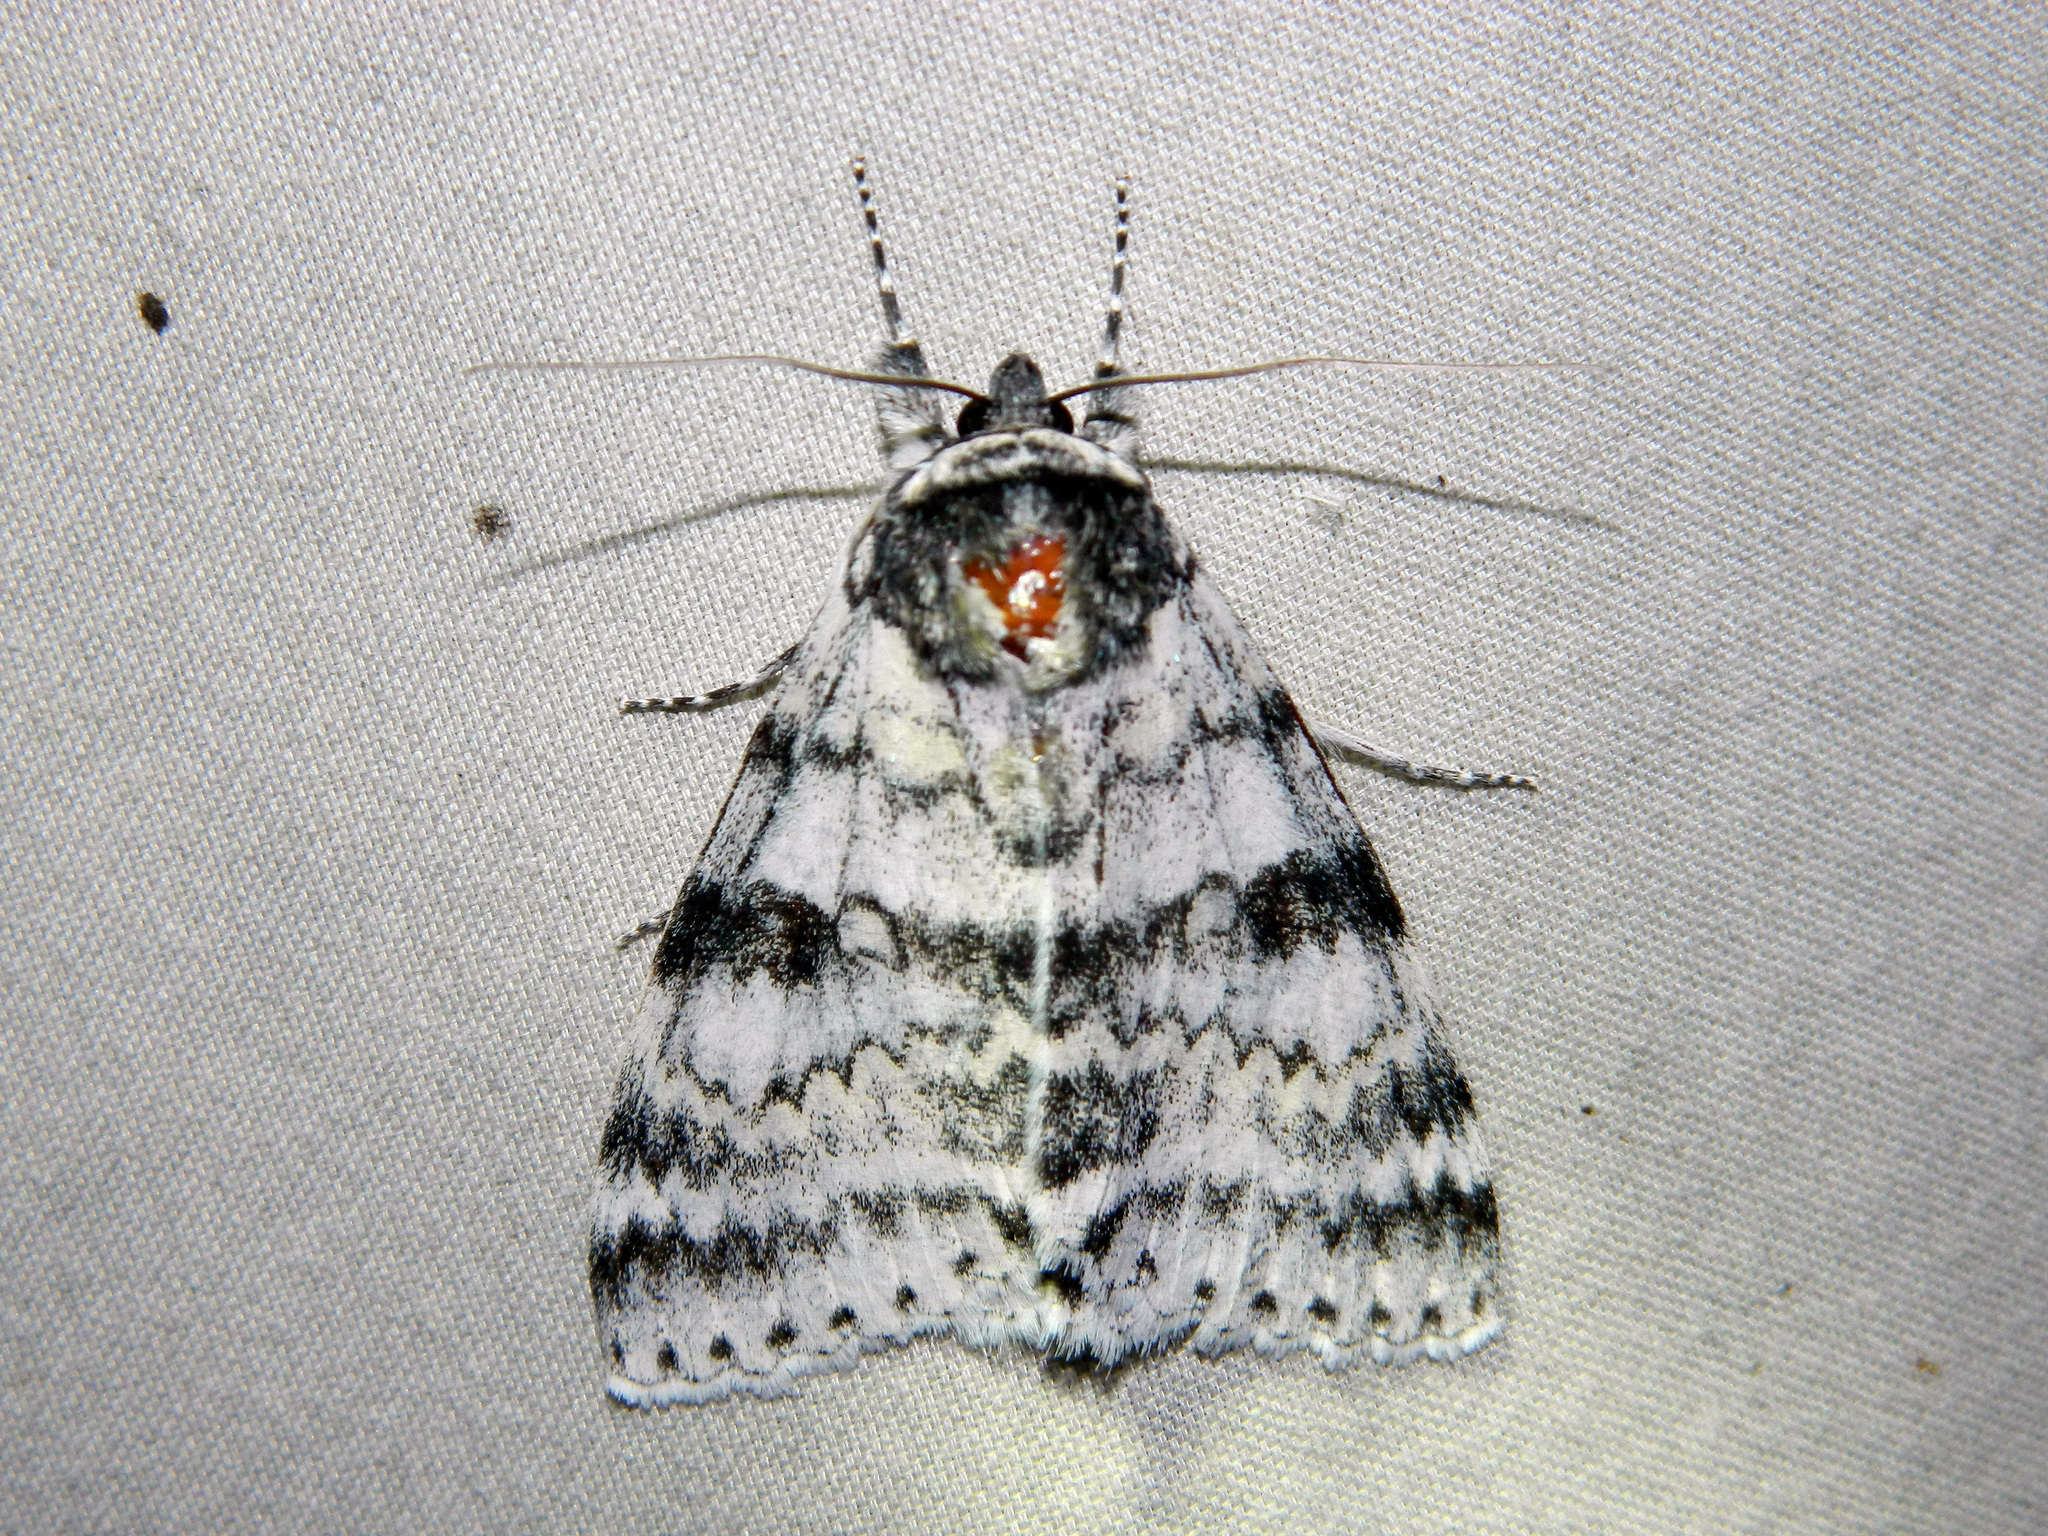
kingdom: Animalia
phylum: Arthropoda
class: Insecta
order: Lepidoptera
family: Erebidae
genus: Catocala
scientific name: Catocala relicta
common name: White underwing
